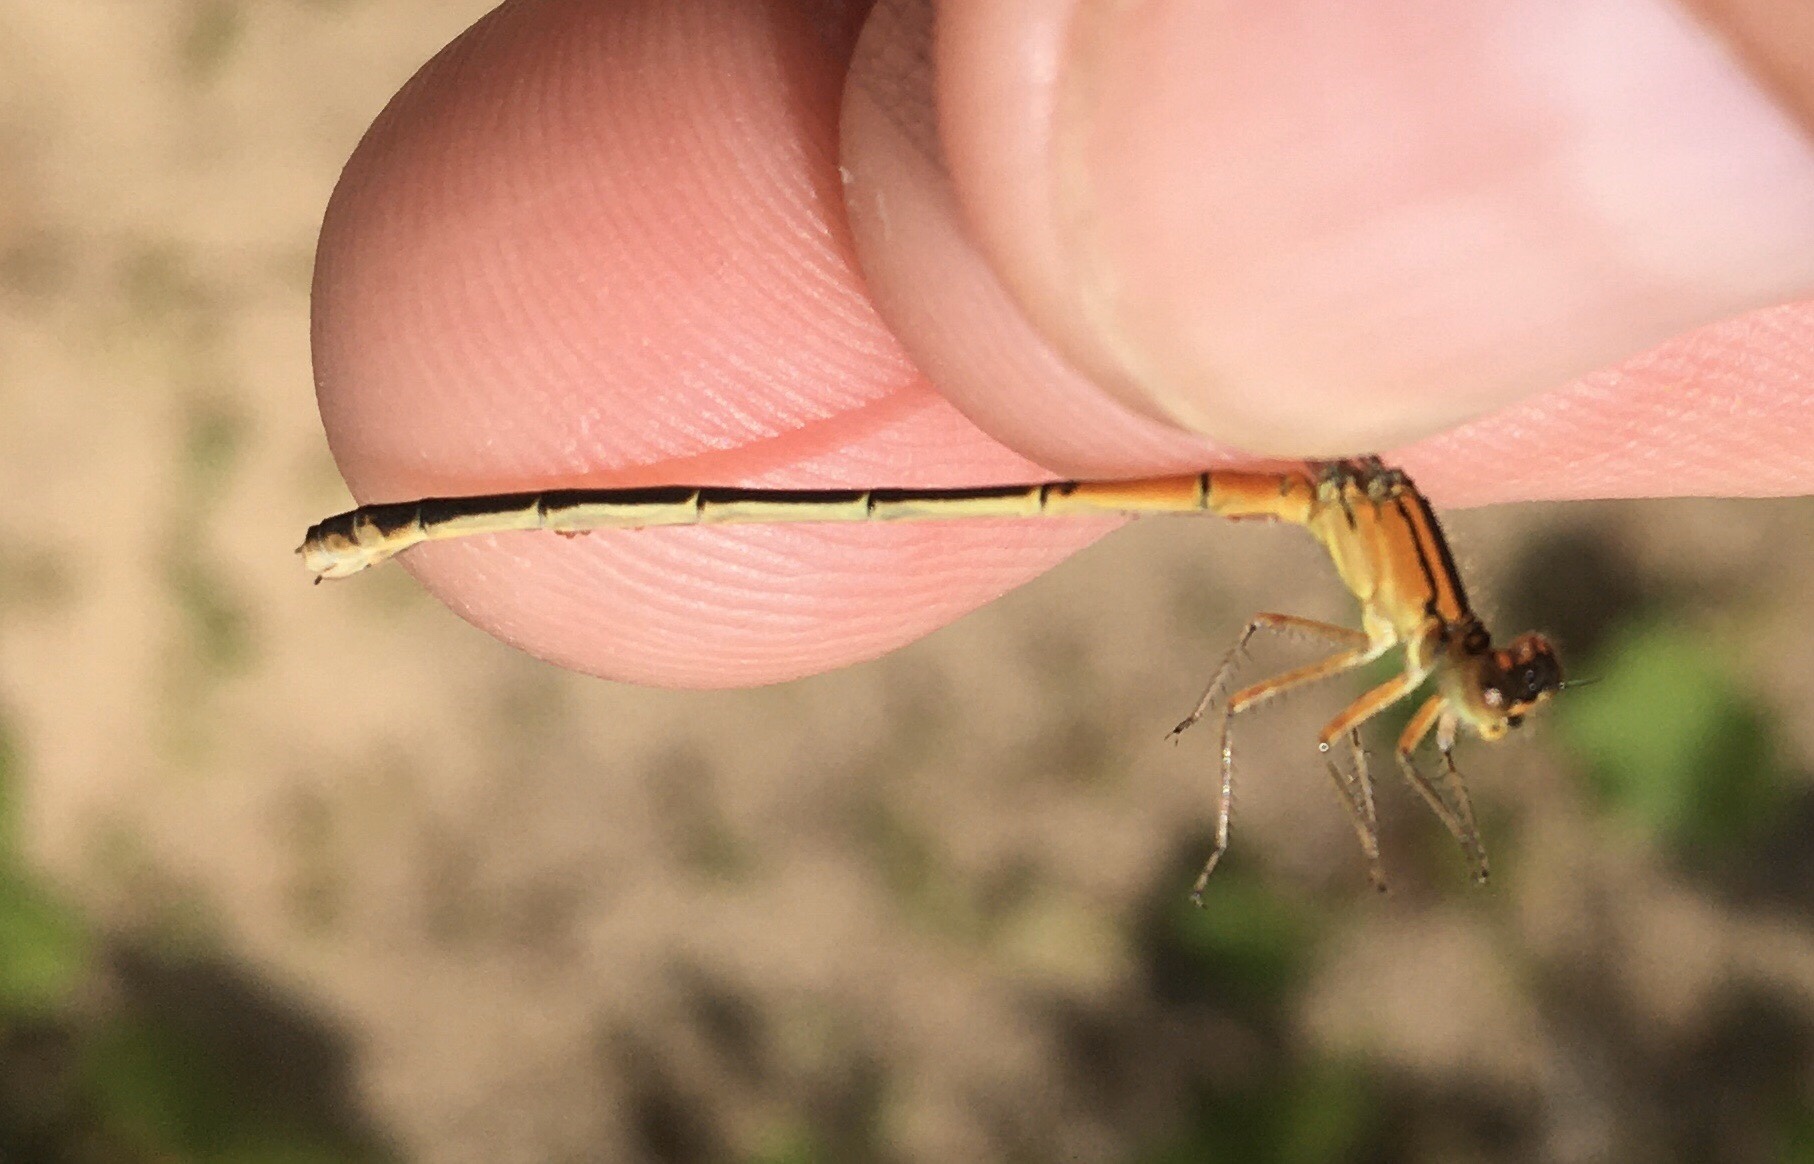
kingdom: Animalia
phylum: Arthropoda
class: Insecta
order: Odonata
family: Coenagrionidae
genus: Ischnura
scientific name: Ischnura verticalis
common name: Eastern forktail
